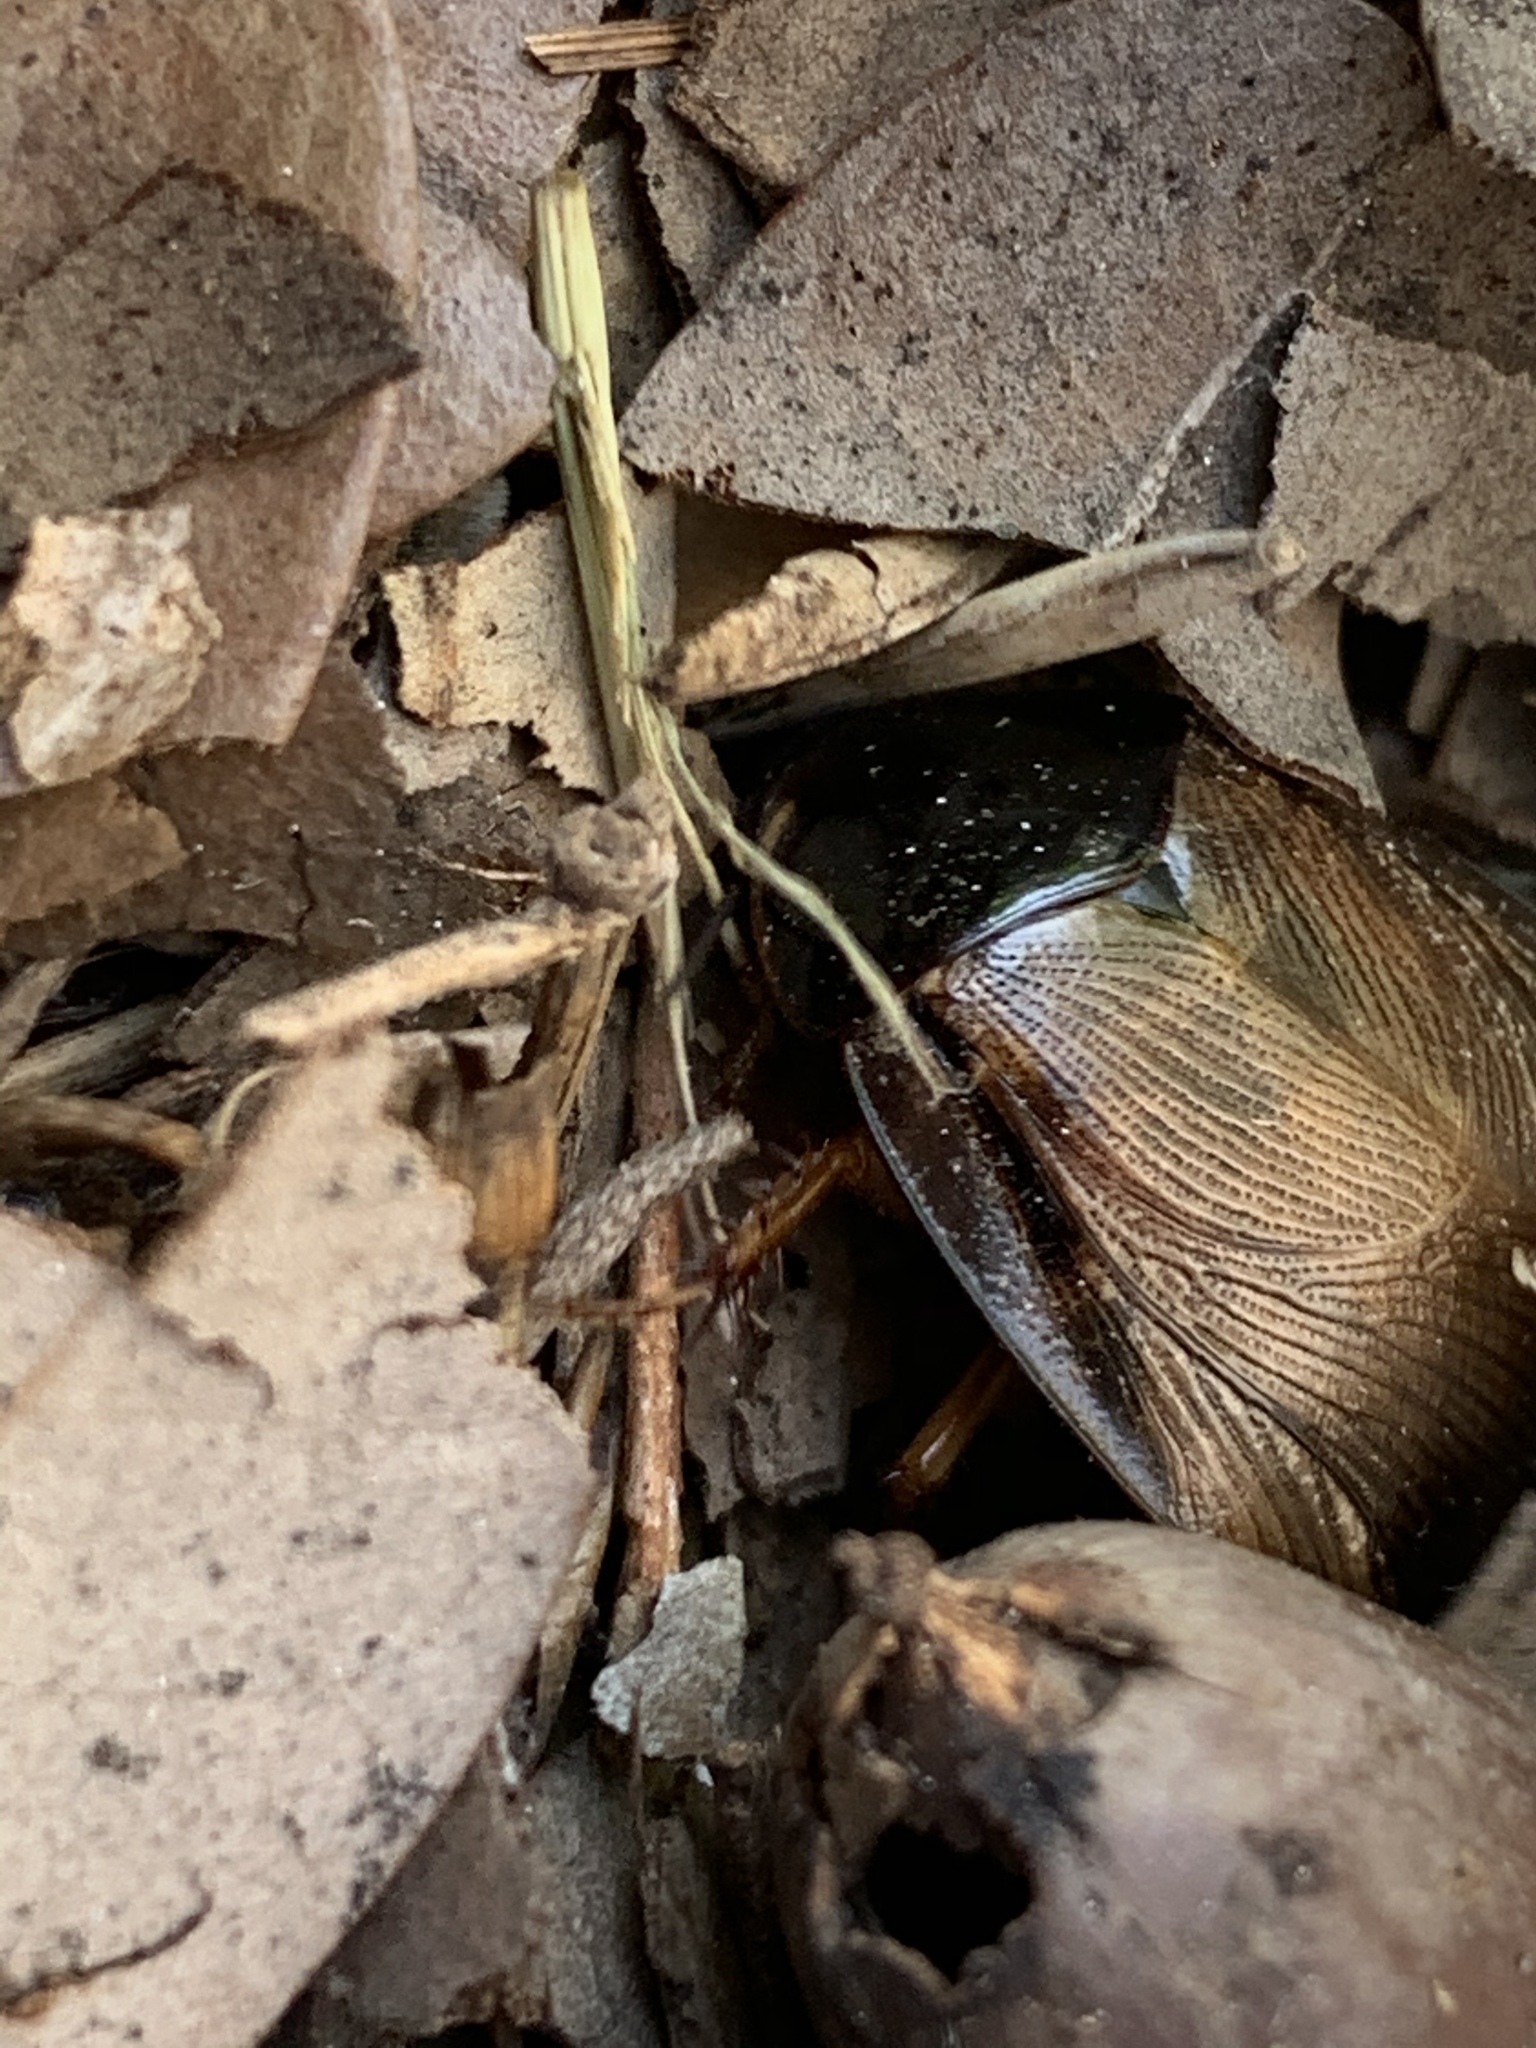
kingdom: Animalia
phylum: Arthropoda
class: Insecta
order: Blattodea
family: Blaberidae
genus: Pycnoscelus
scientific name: Pycnoscelus surinamensis
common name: Surinam cockroach
